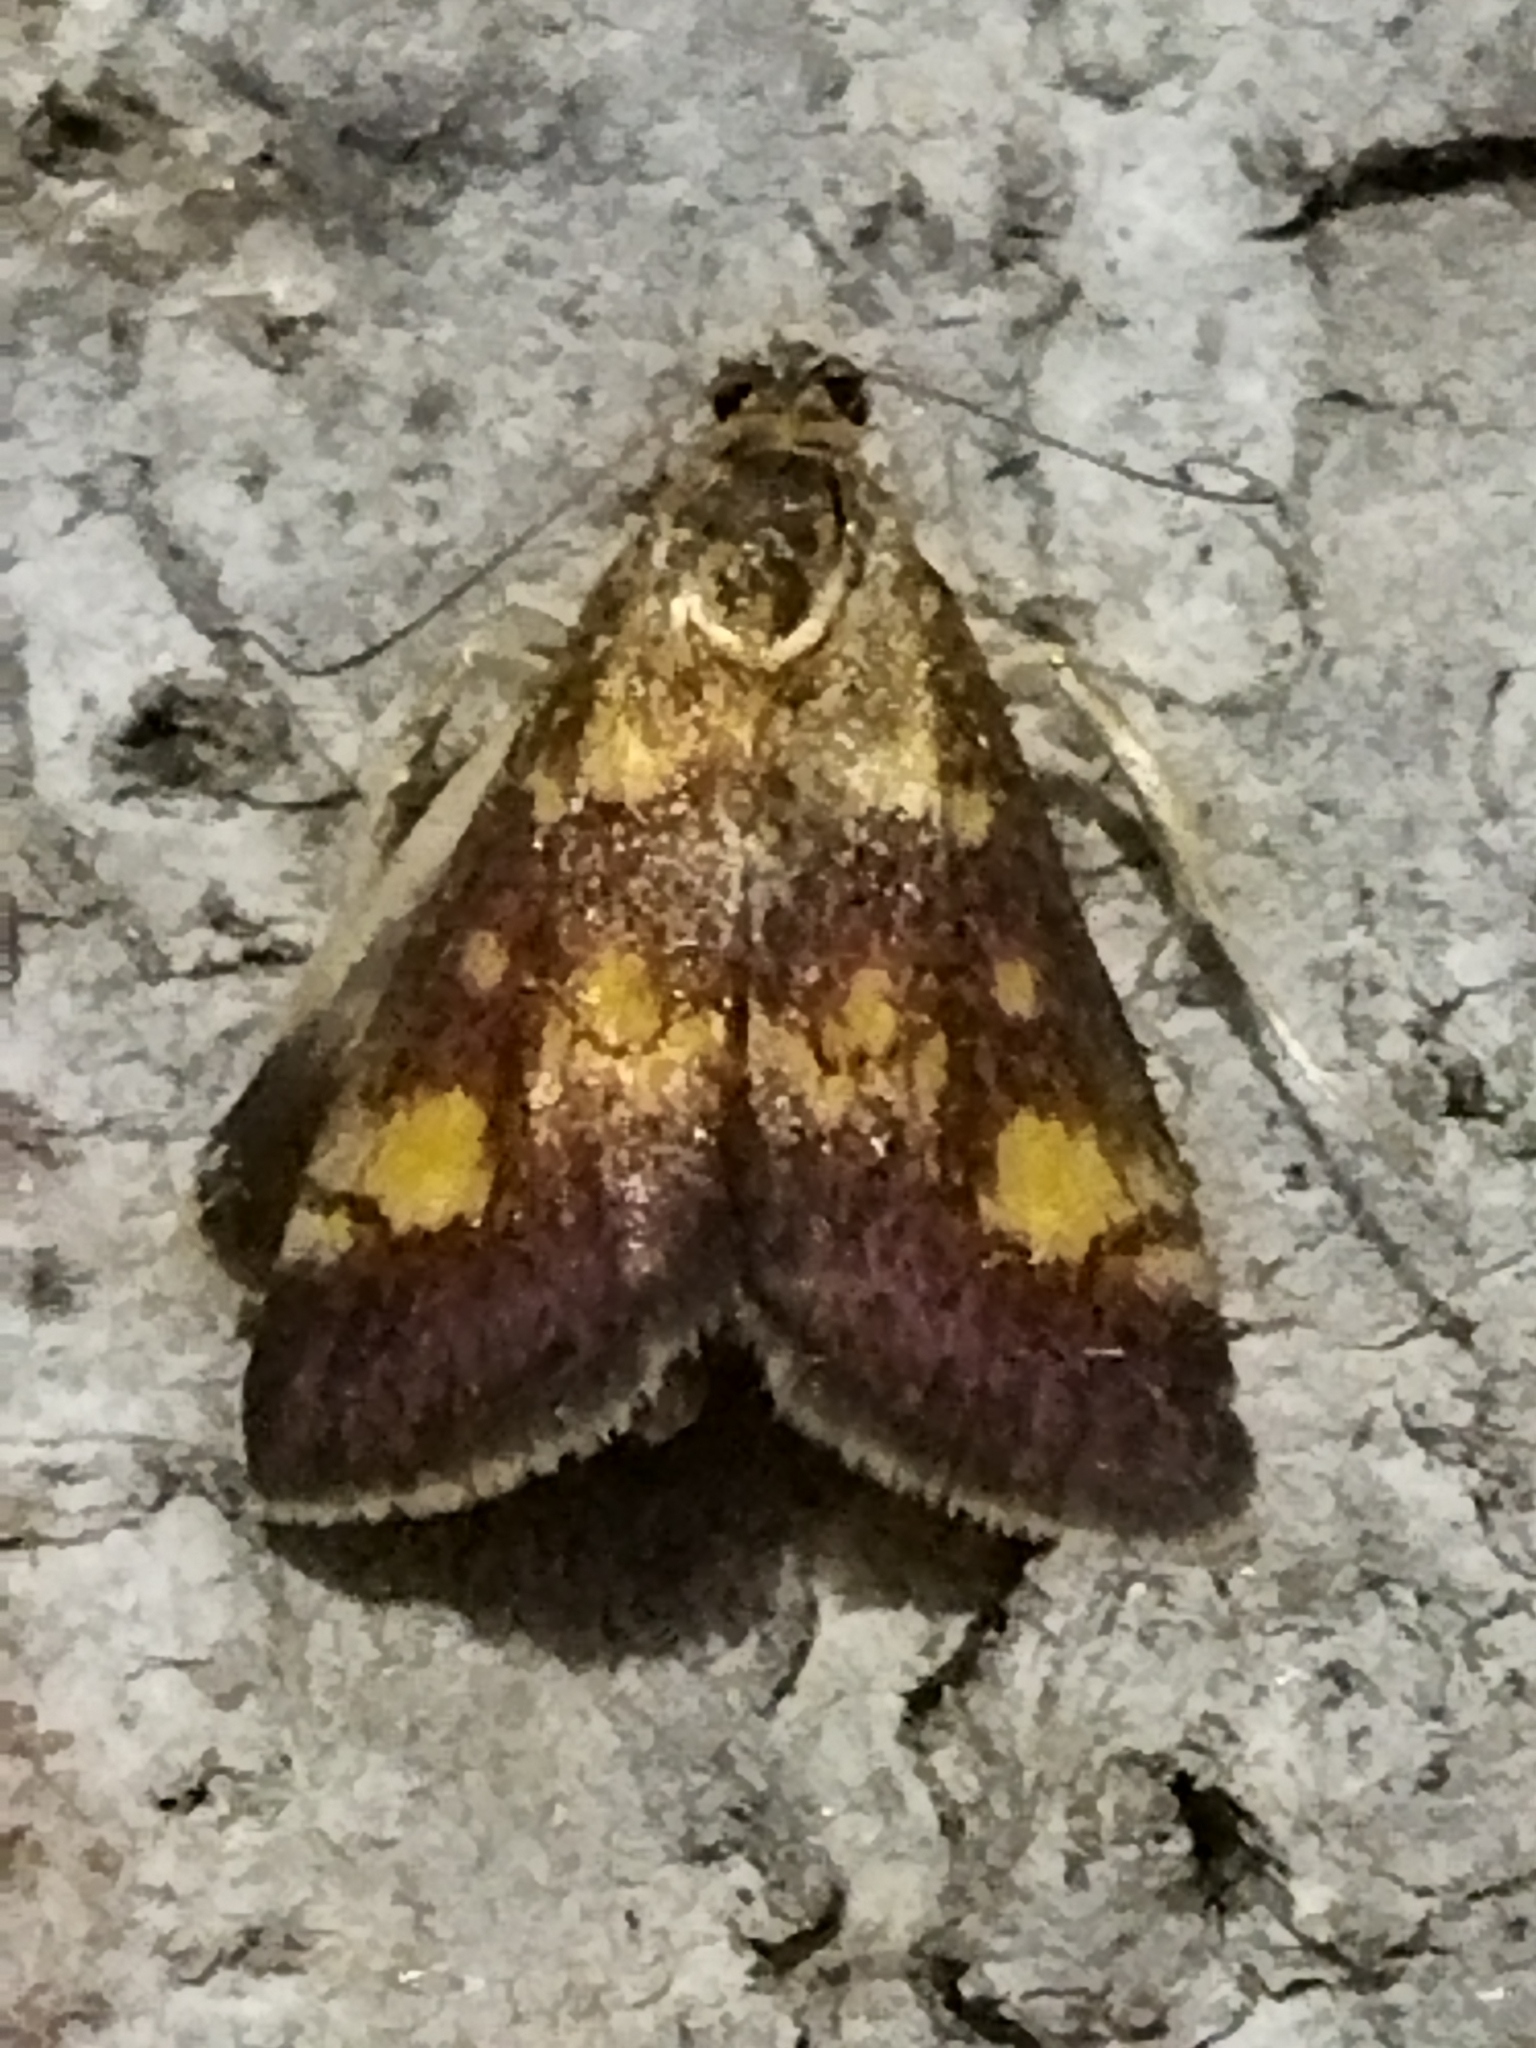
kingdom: Animalia
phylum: Arthropoda
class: Insecta
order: Lepidoptera
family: Crambidae
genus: Pyrausta
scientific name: Pyrausta aurata
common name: Small purple & gold
